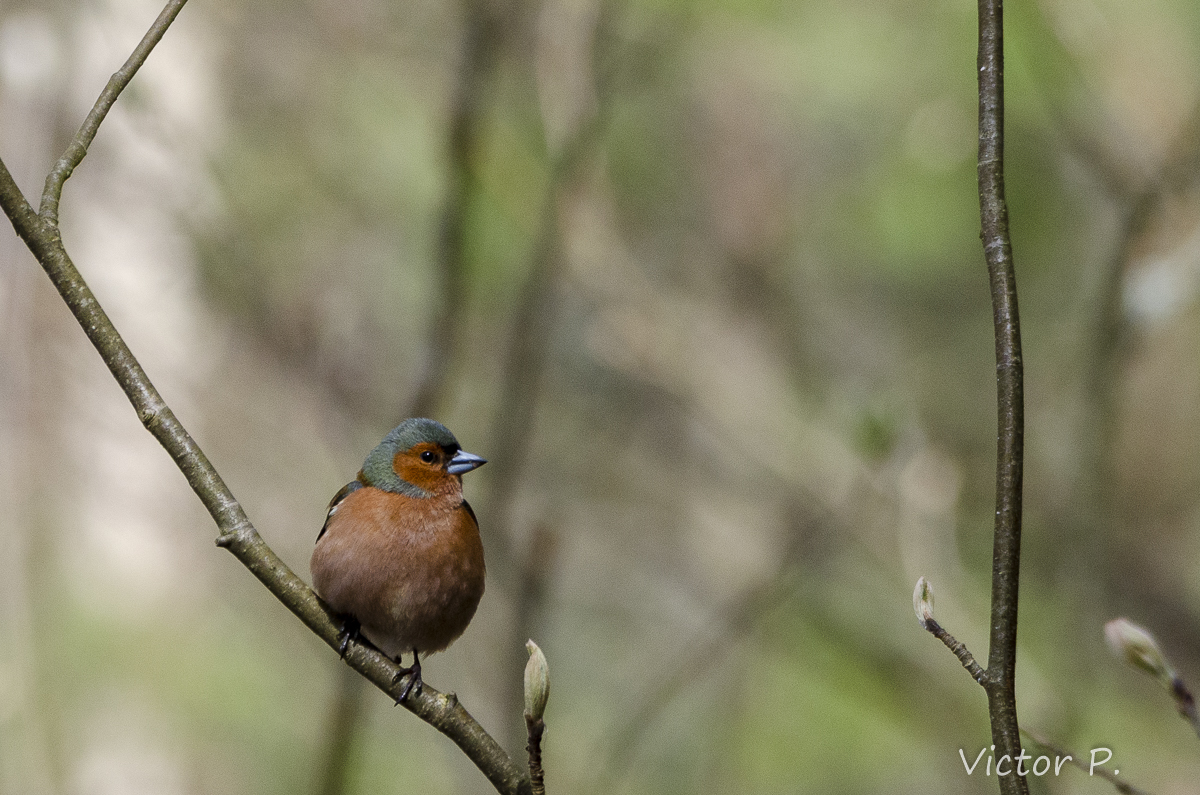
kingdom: Animalia
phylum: Chordata
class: Aves
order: Passeriformes
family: Fringillidae
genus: Fringilla
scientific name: Fringilla coelebs
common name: Common chaffinch
